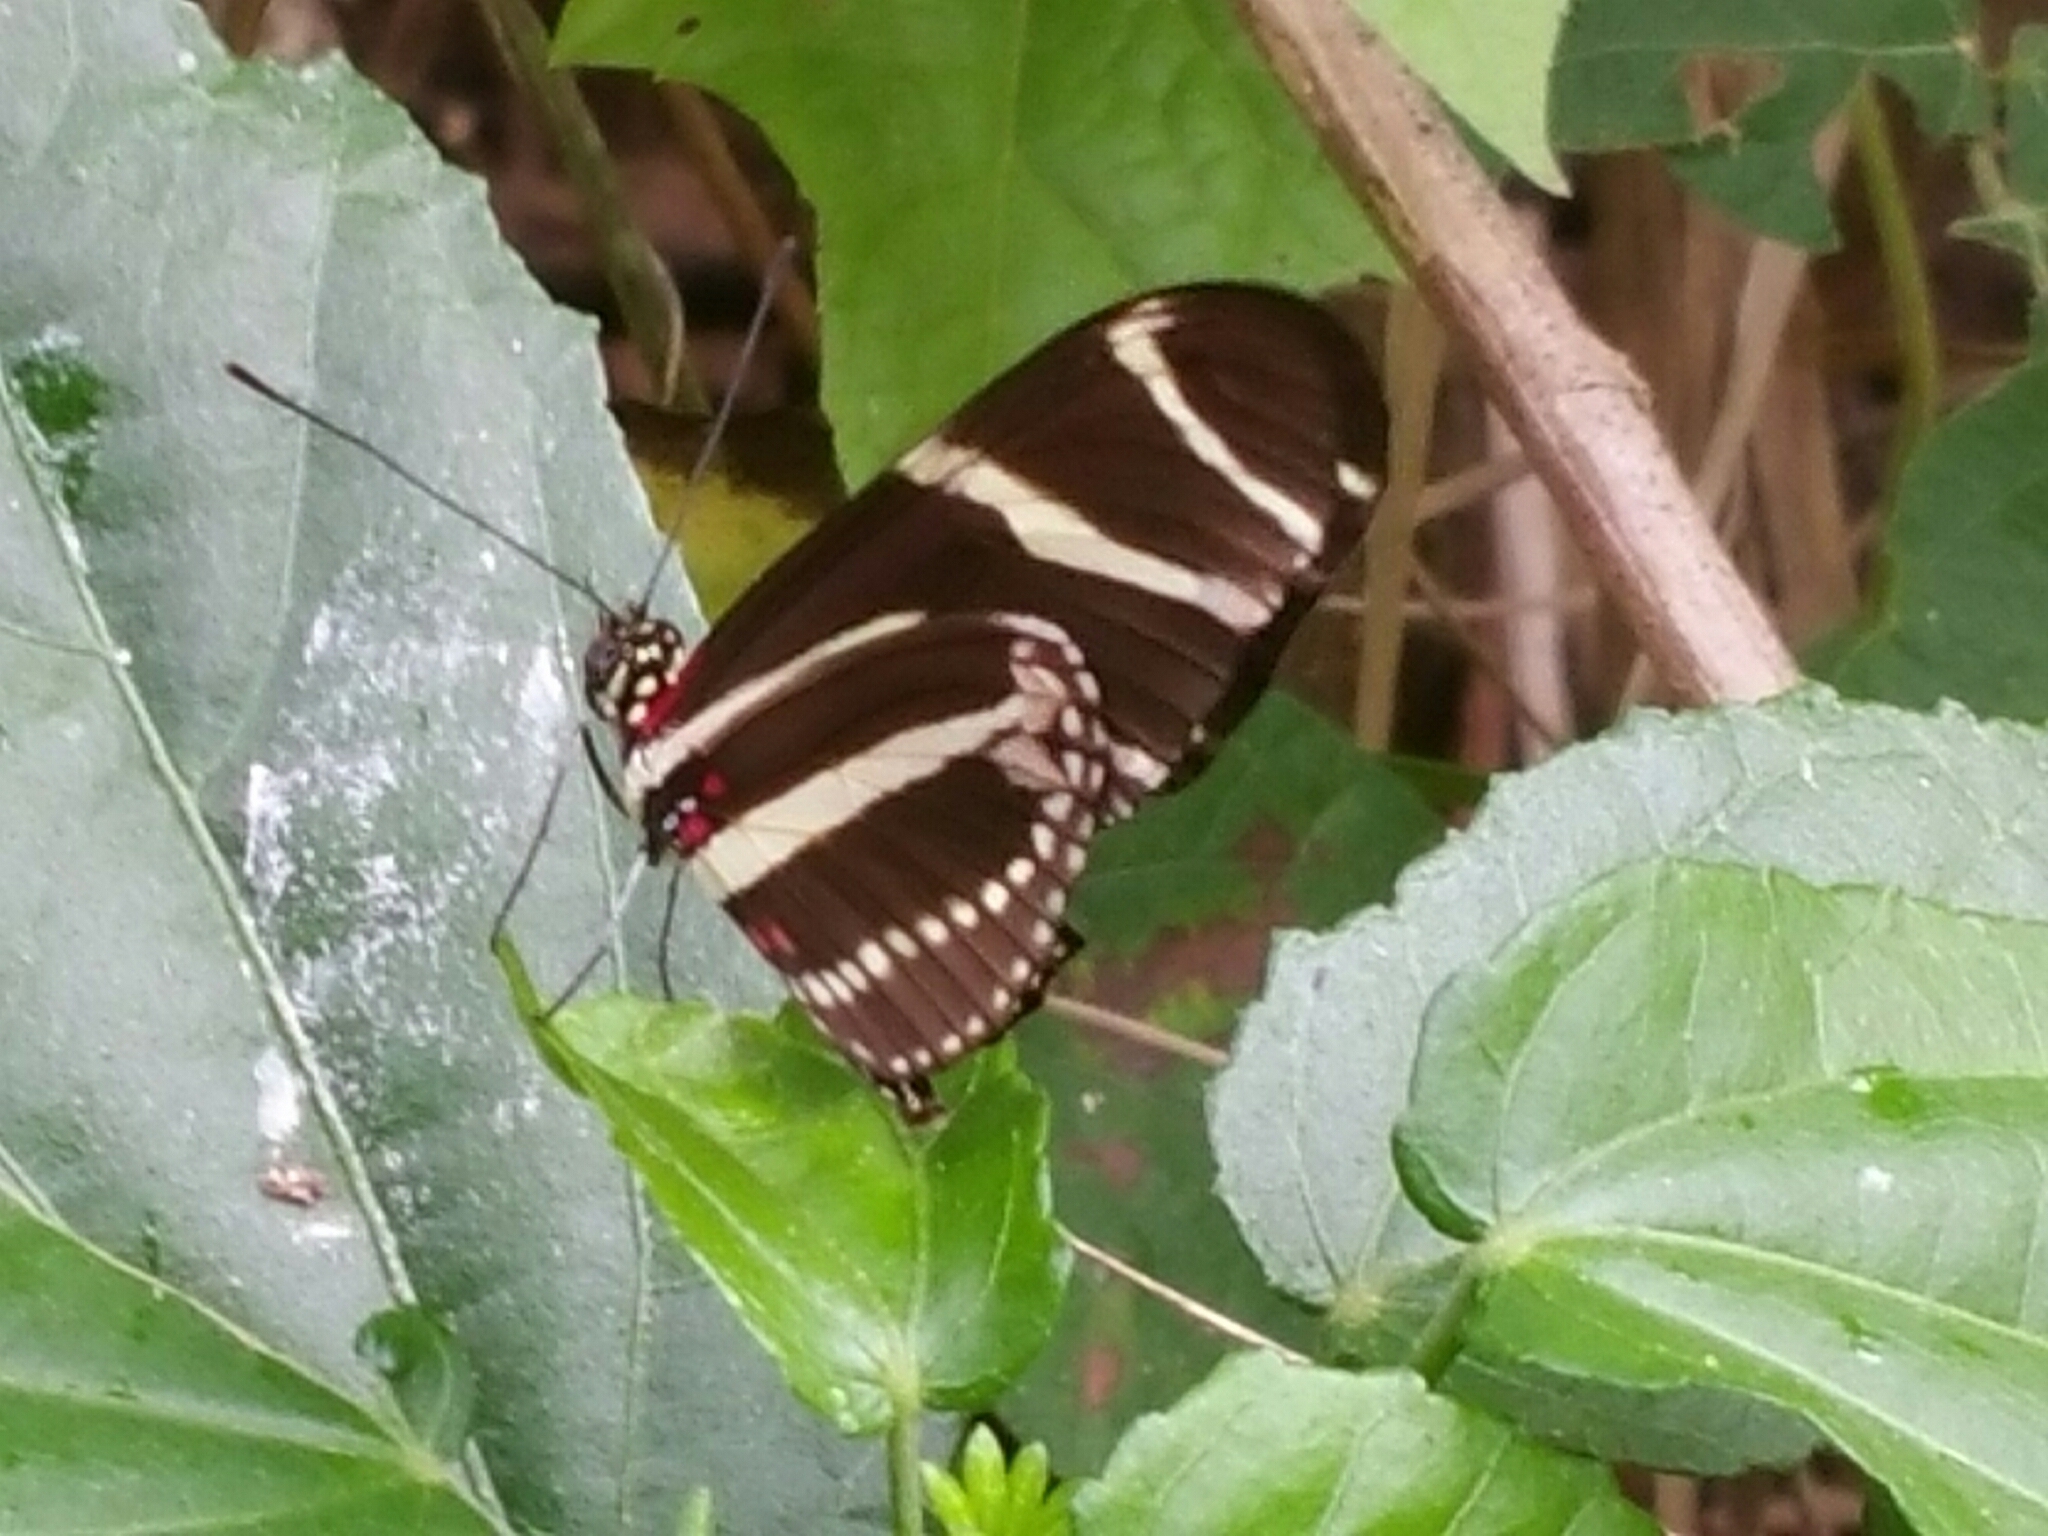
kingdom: Animalia
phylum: Arthropoda
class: Insecta
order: Lepidoptera
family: Nymphalidae
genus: Heliconius
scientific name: Heliconius charithonia
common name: Zebra long wing
